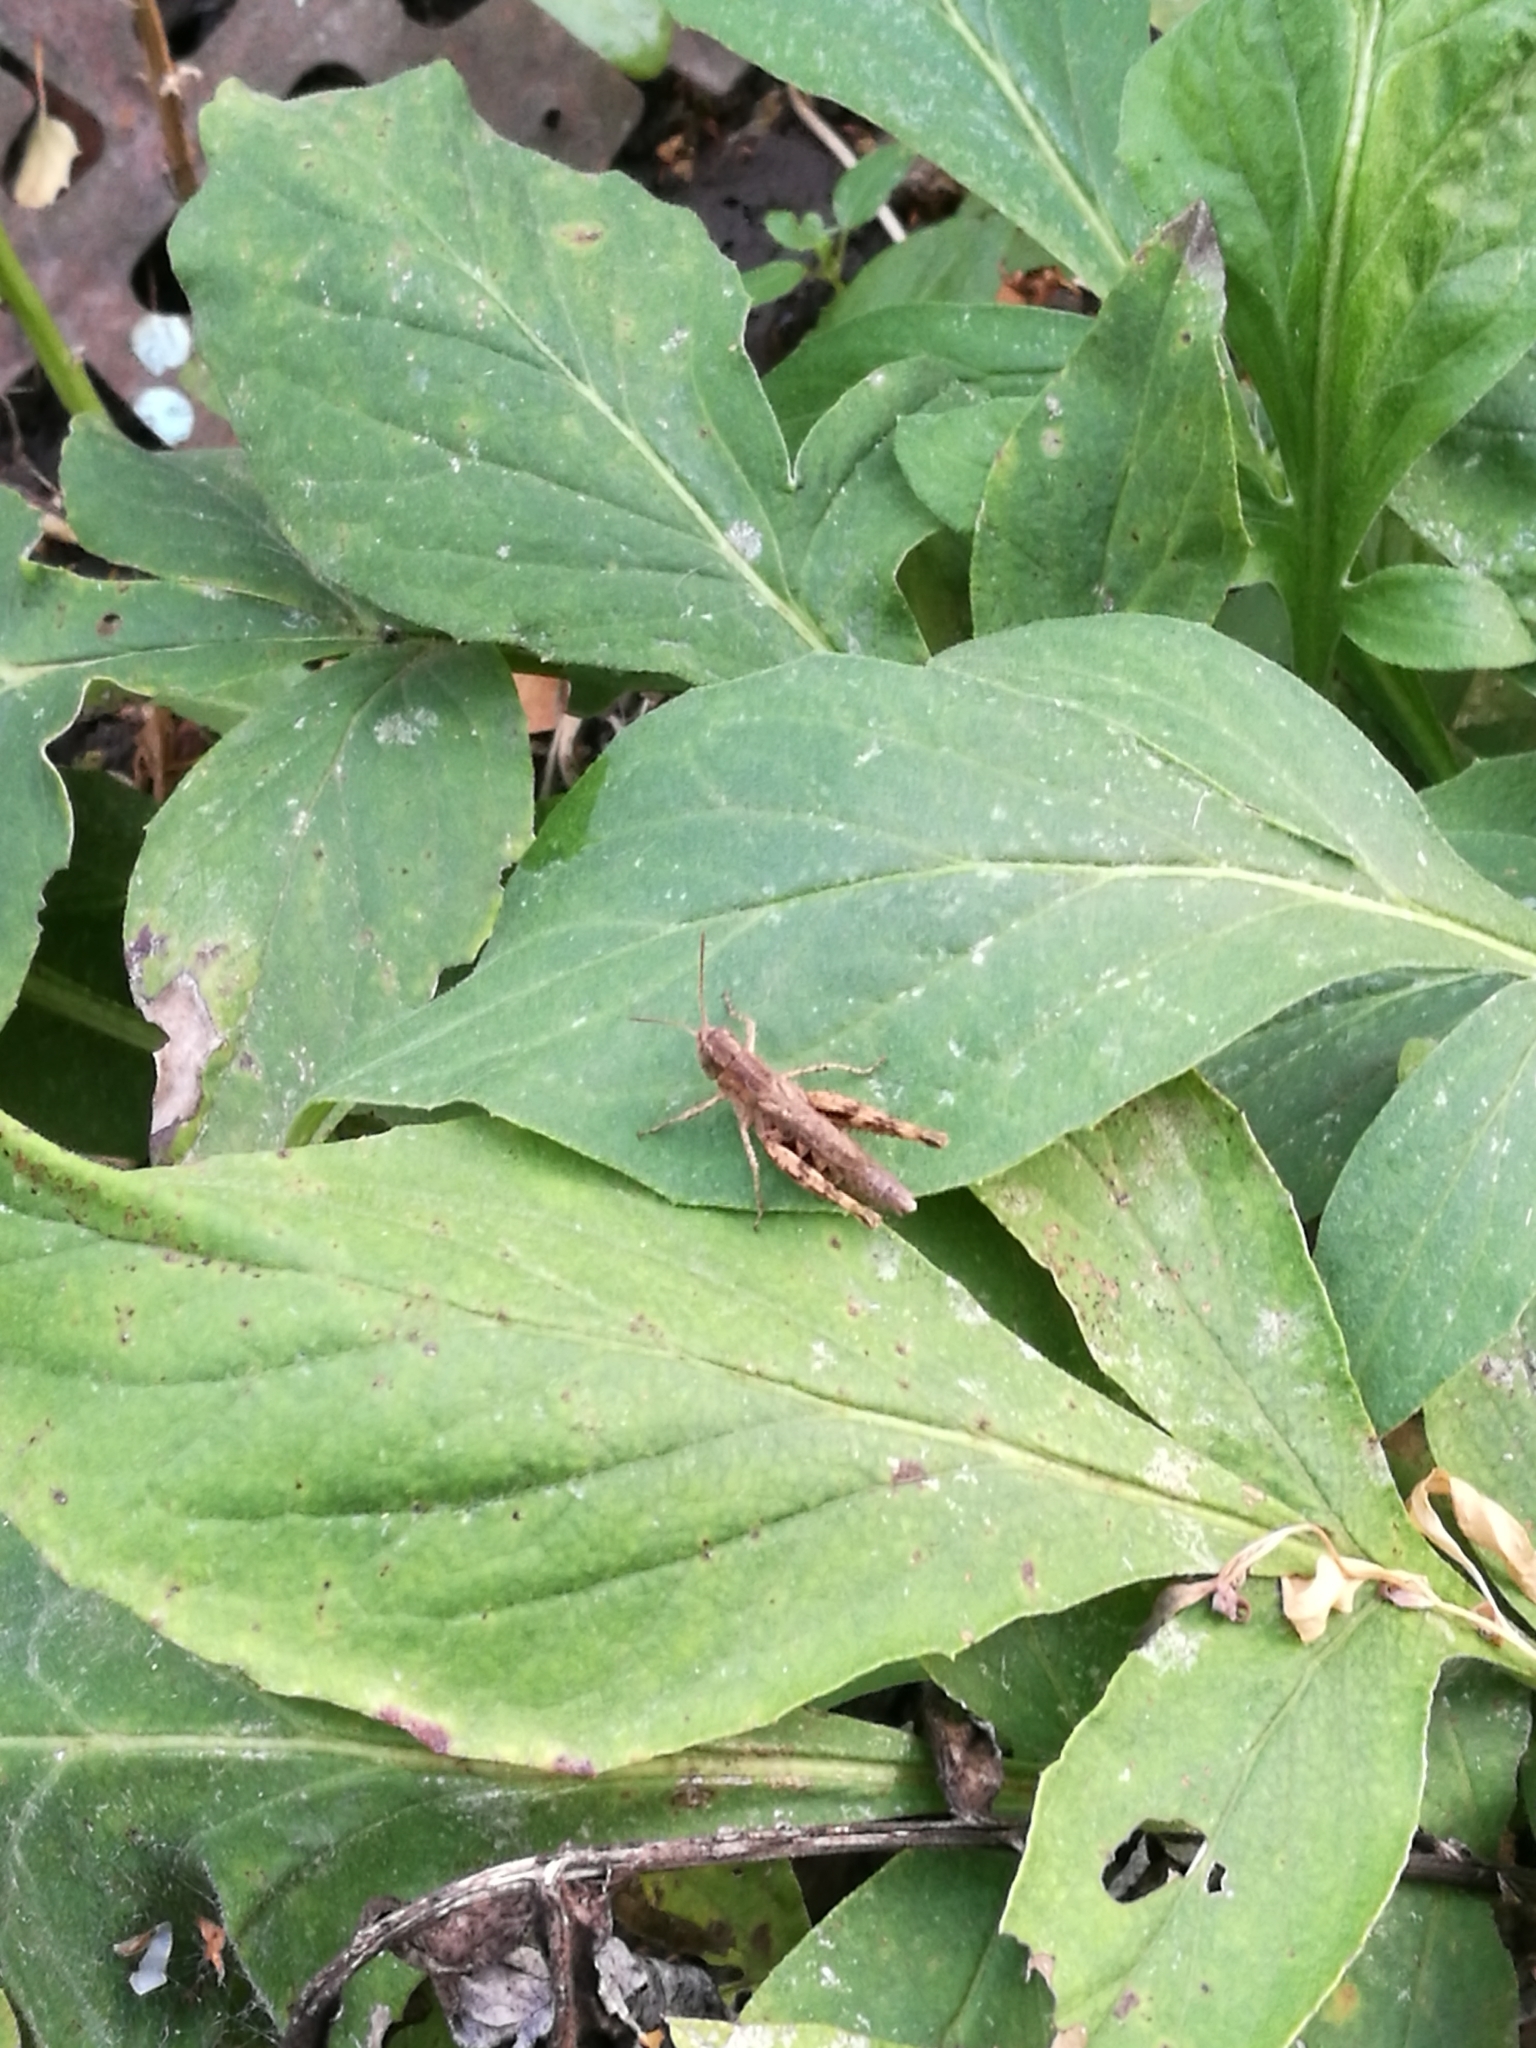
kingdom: Animalia
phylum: Arthropoda
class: Insecta
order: Orthoptera
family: Acrididae
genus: Chorthippus
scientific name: Chorthippus apricarius
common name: Upland field grasshopper
